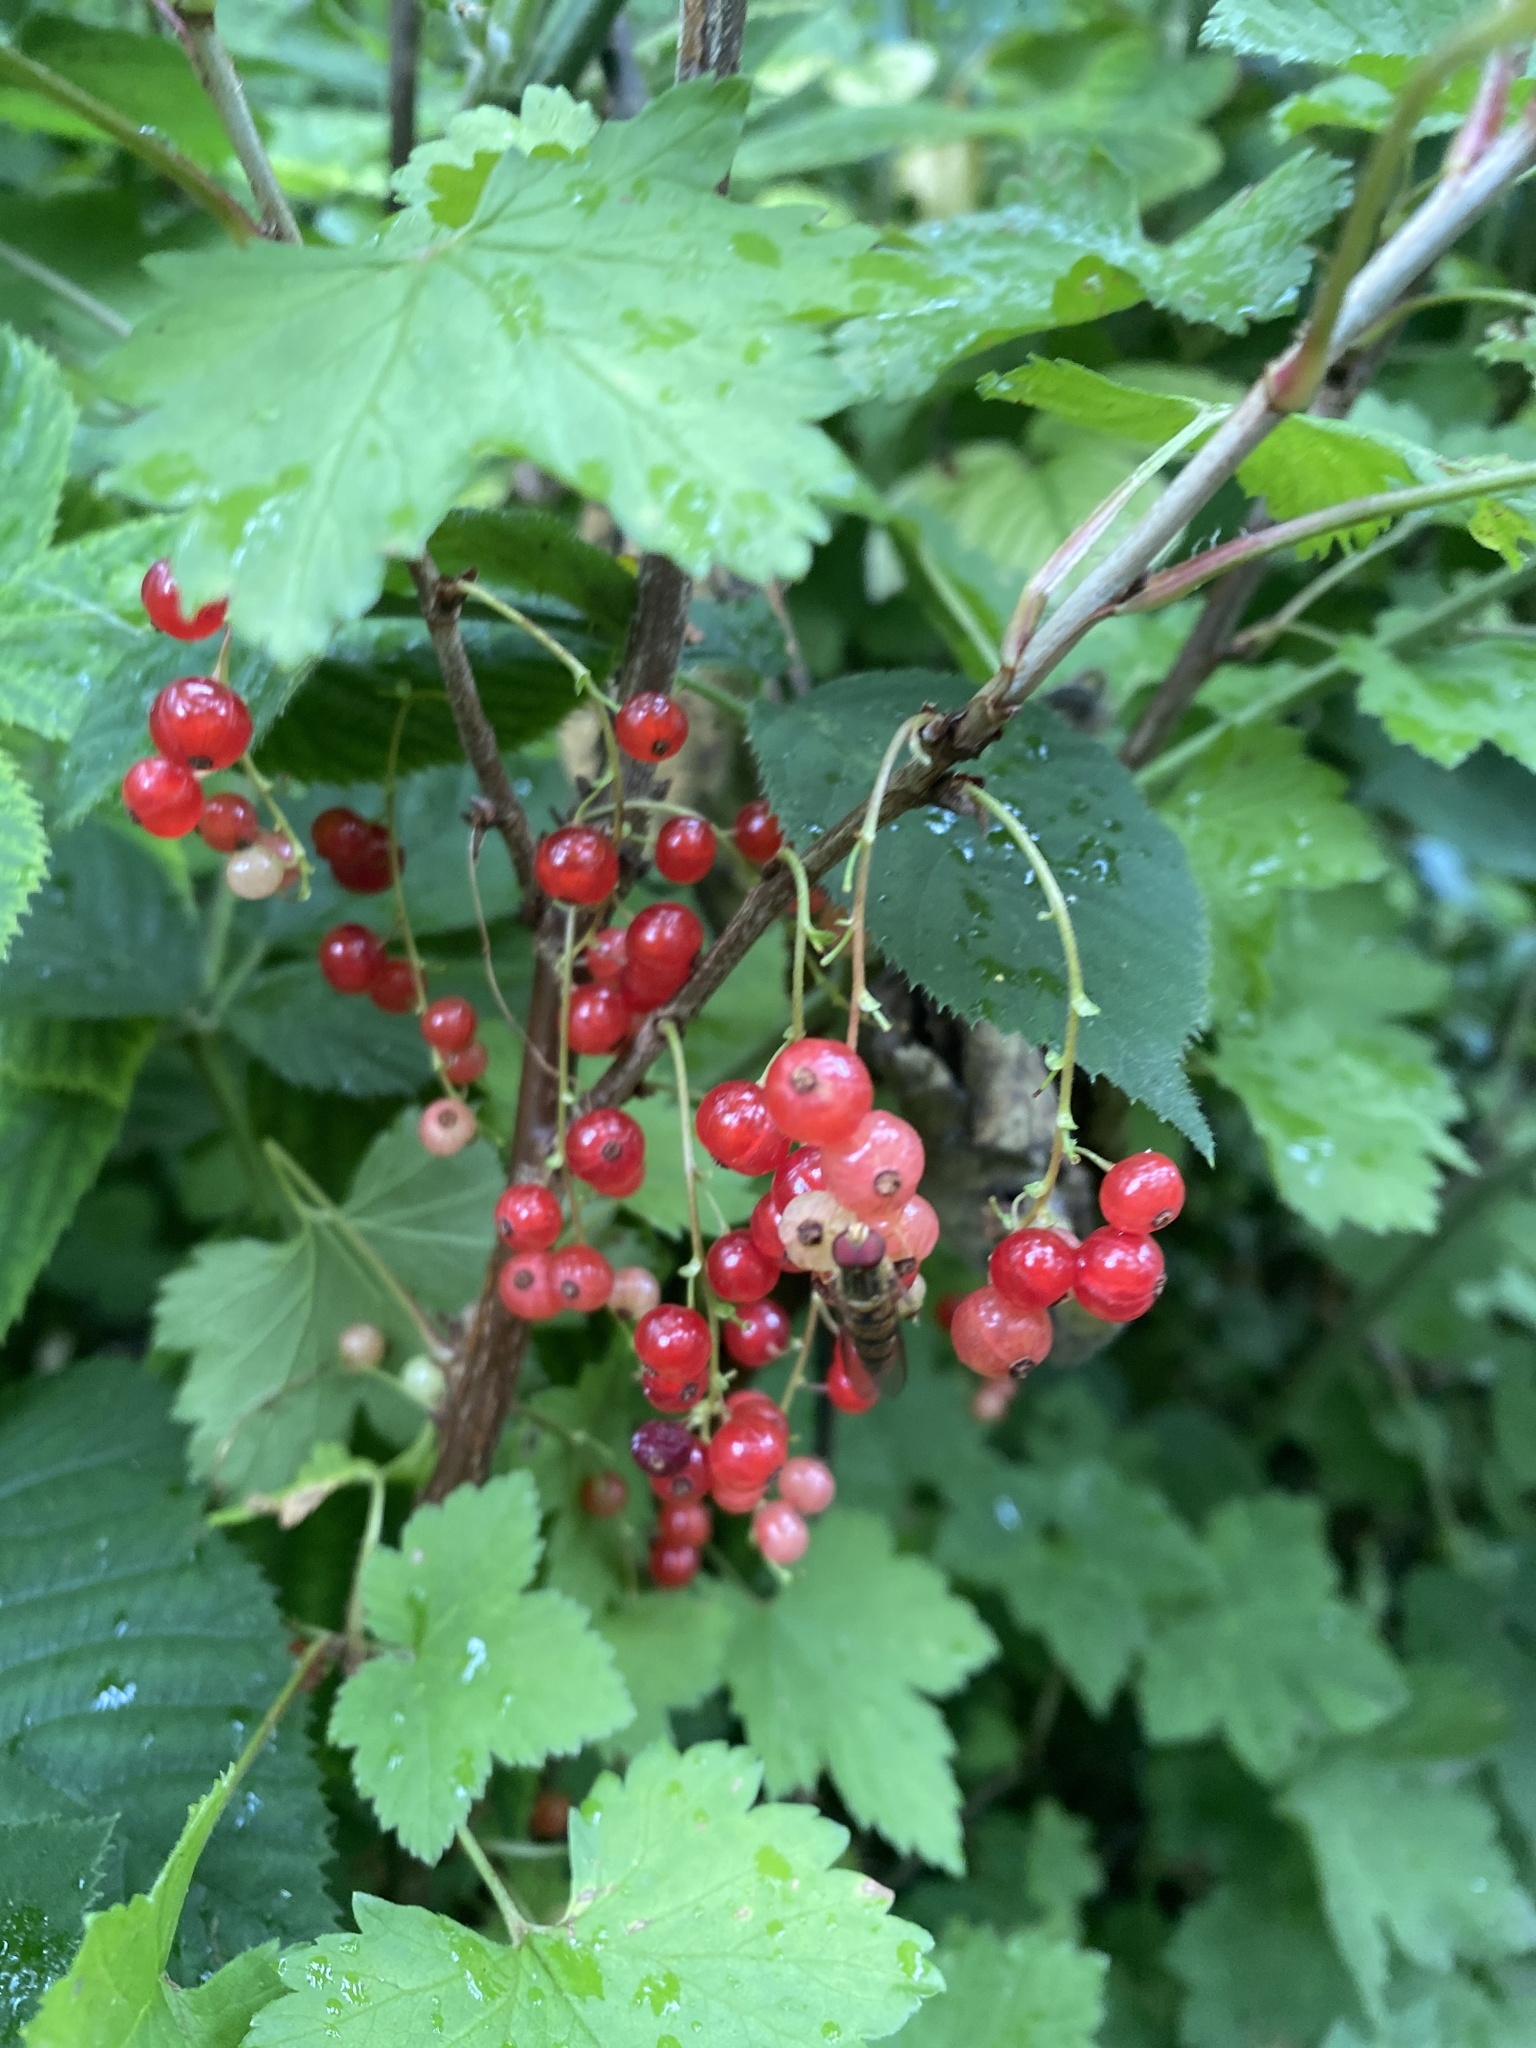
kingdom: Plantae
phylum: Tracheophyta
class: Magnoliopsida
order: Saxifragales
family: Grossulariaceae
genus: Ribes
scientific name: Ribes rubrum
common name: Red currant
